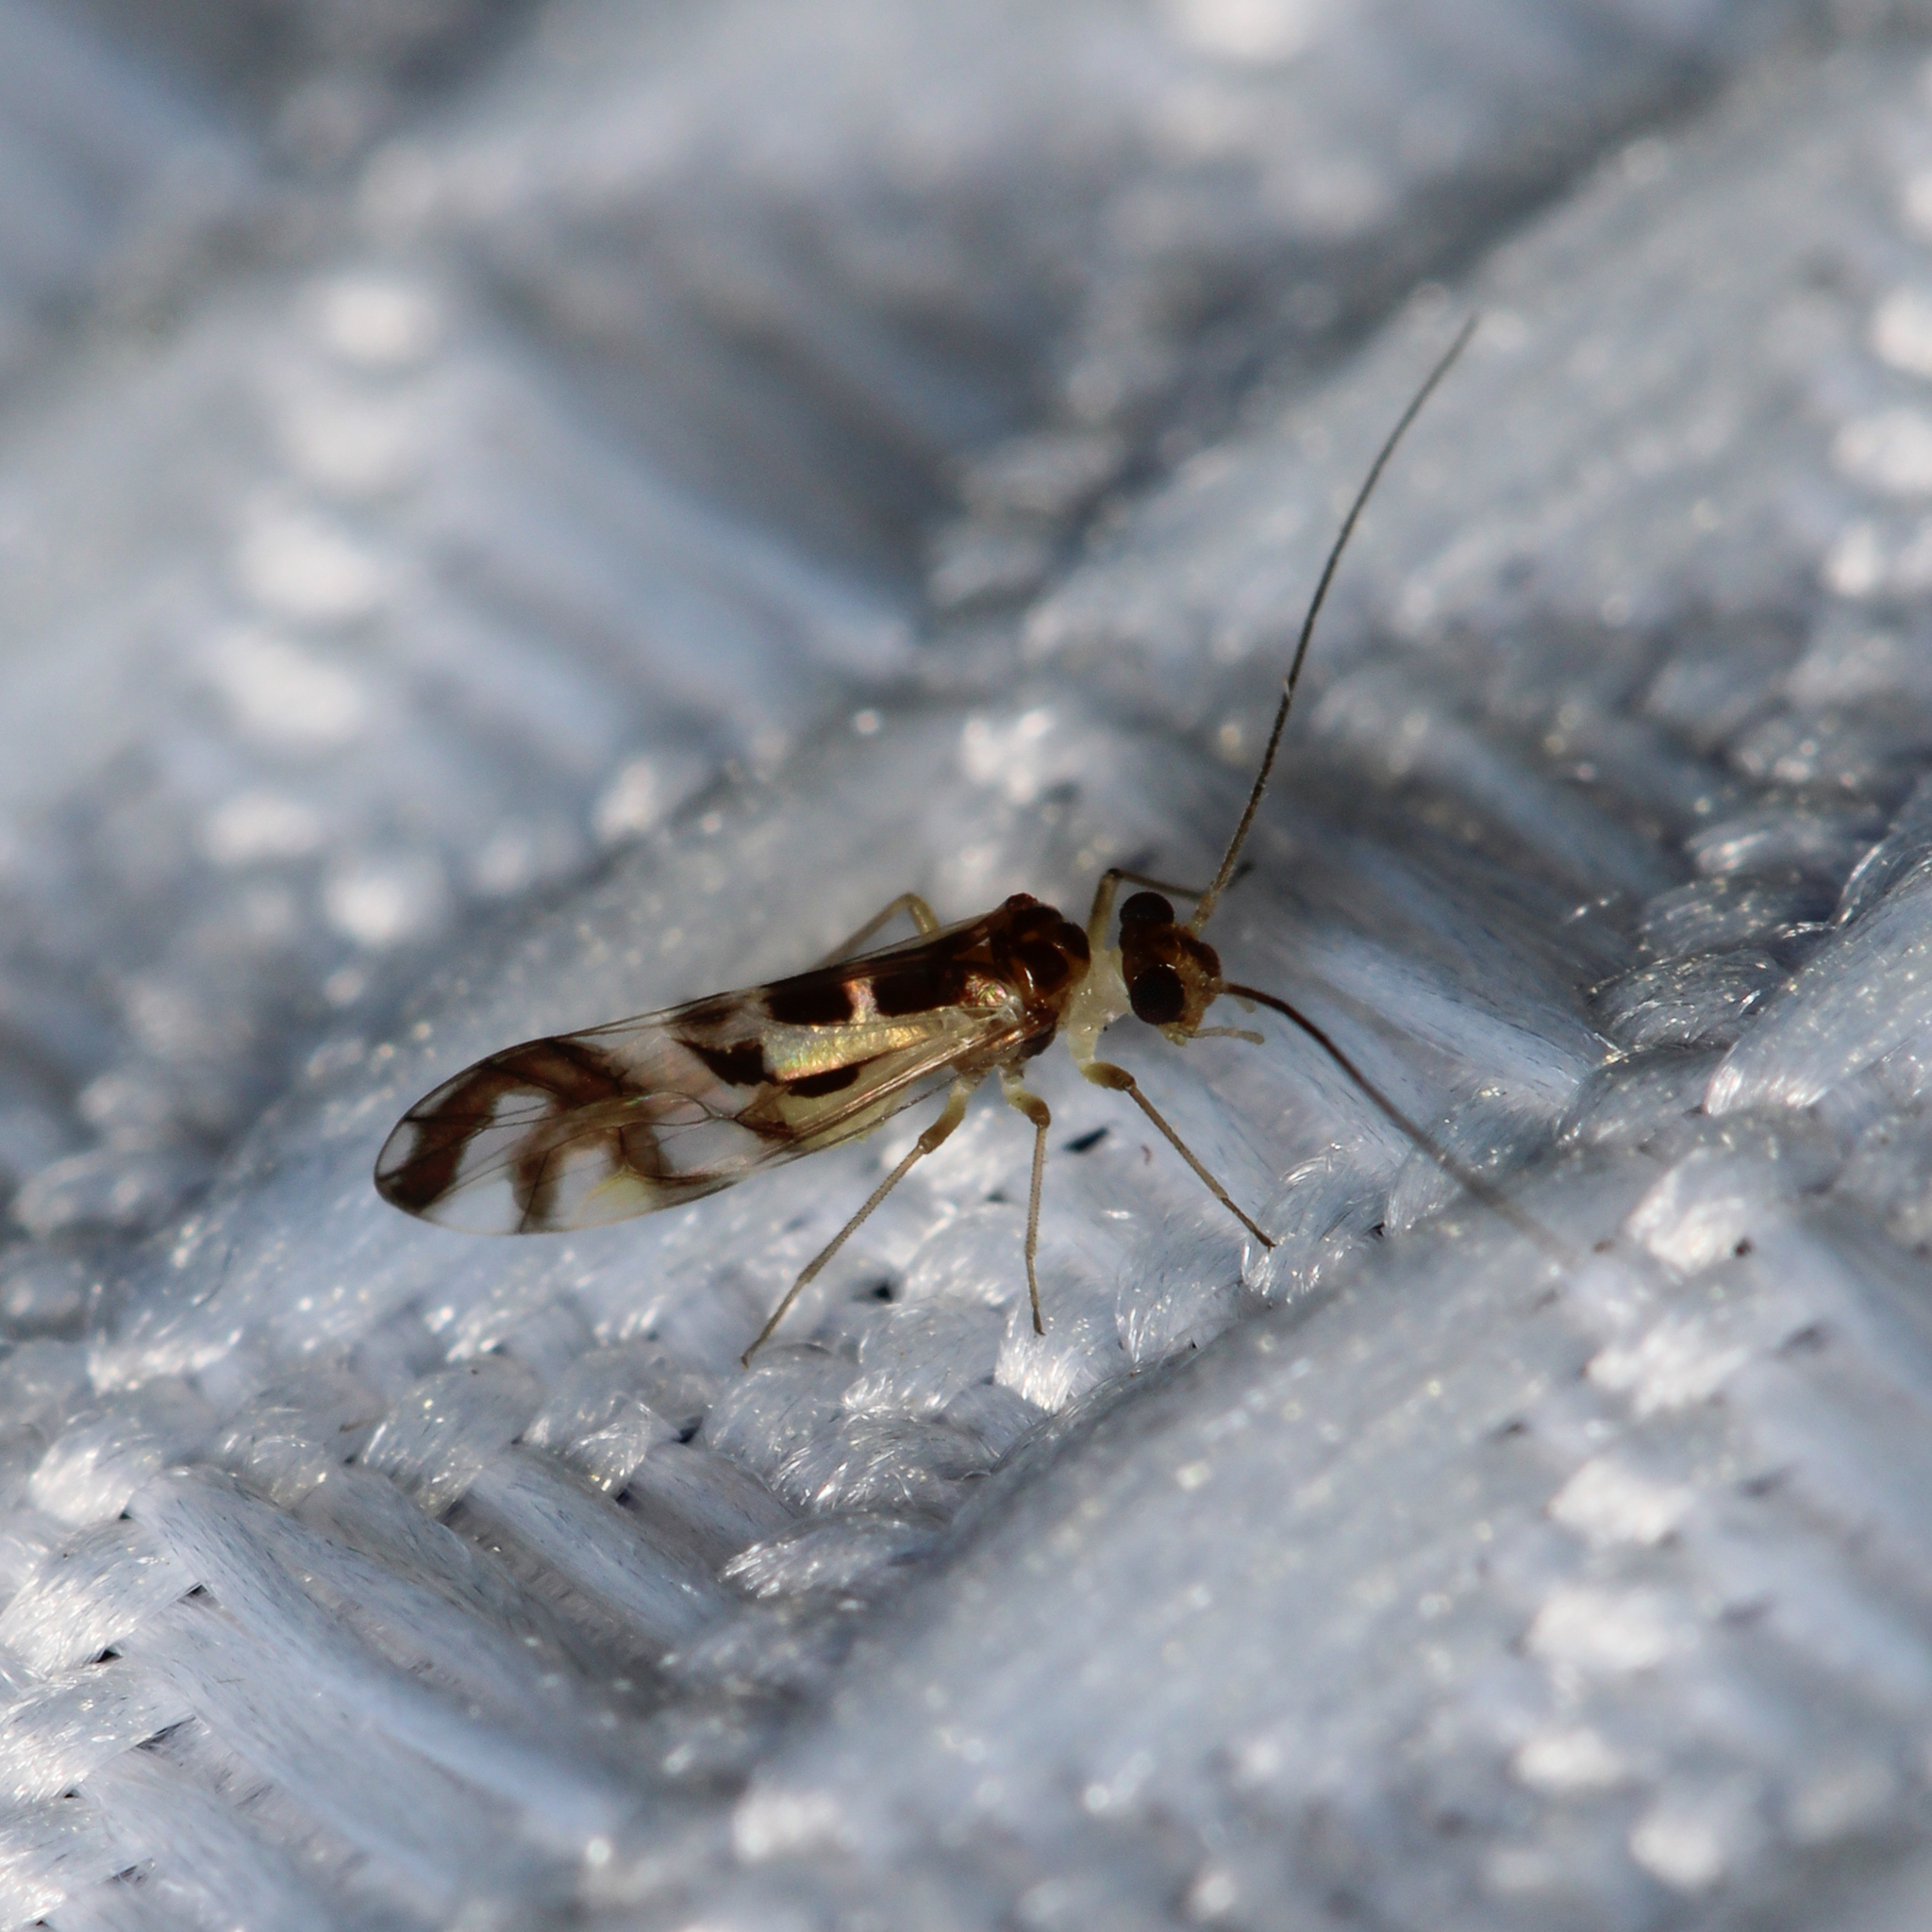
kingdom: Animalia
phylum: Arthropoda
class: Insecta
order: Psocodea
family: Stenopsocidae
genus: Graphopsocus
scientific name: Graphopsocus cruciatus
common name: Lizard bark louse
